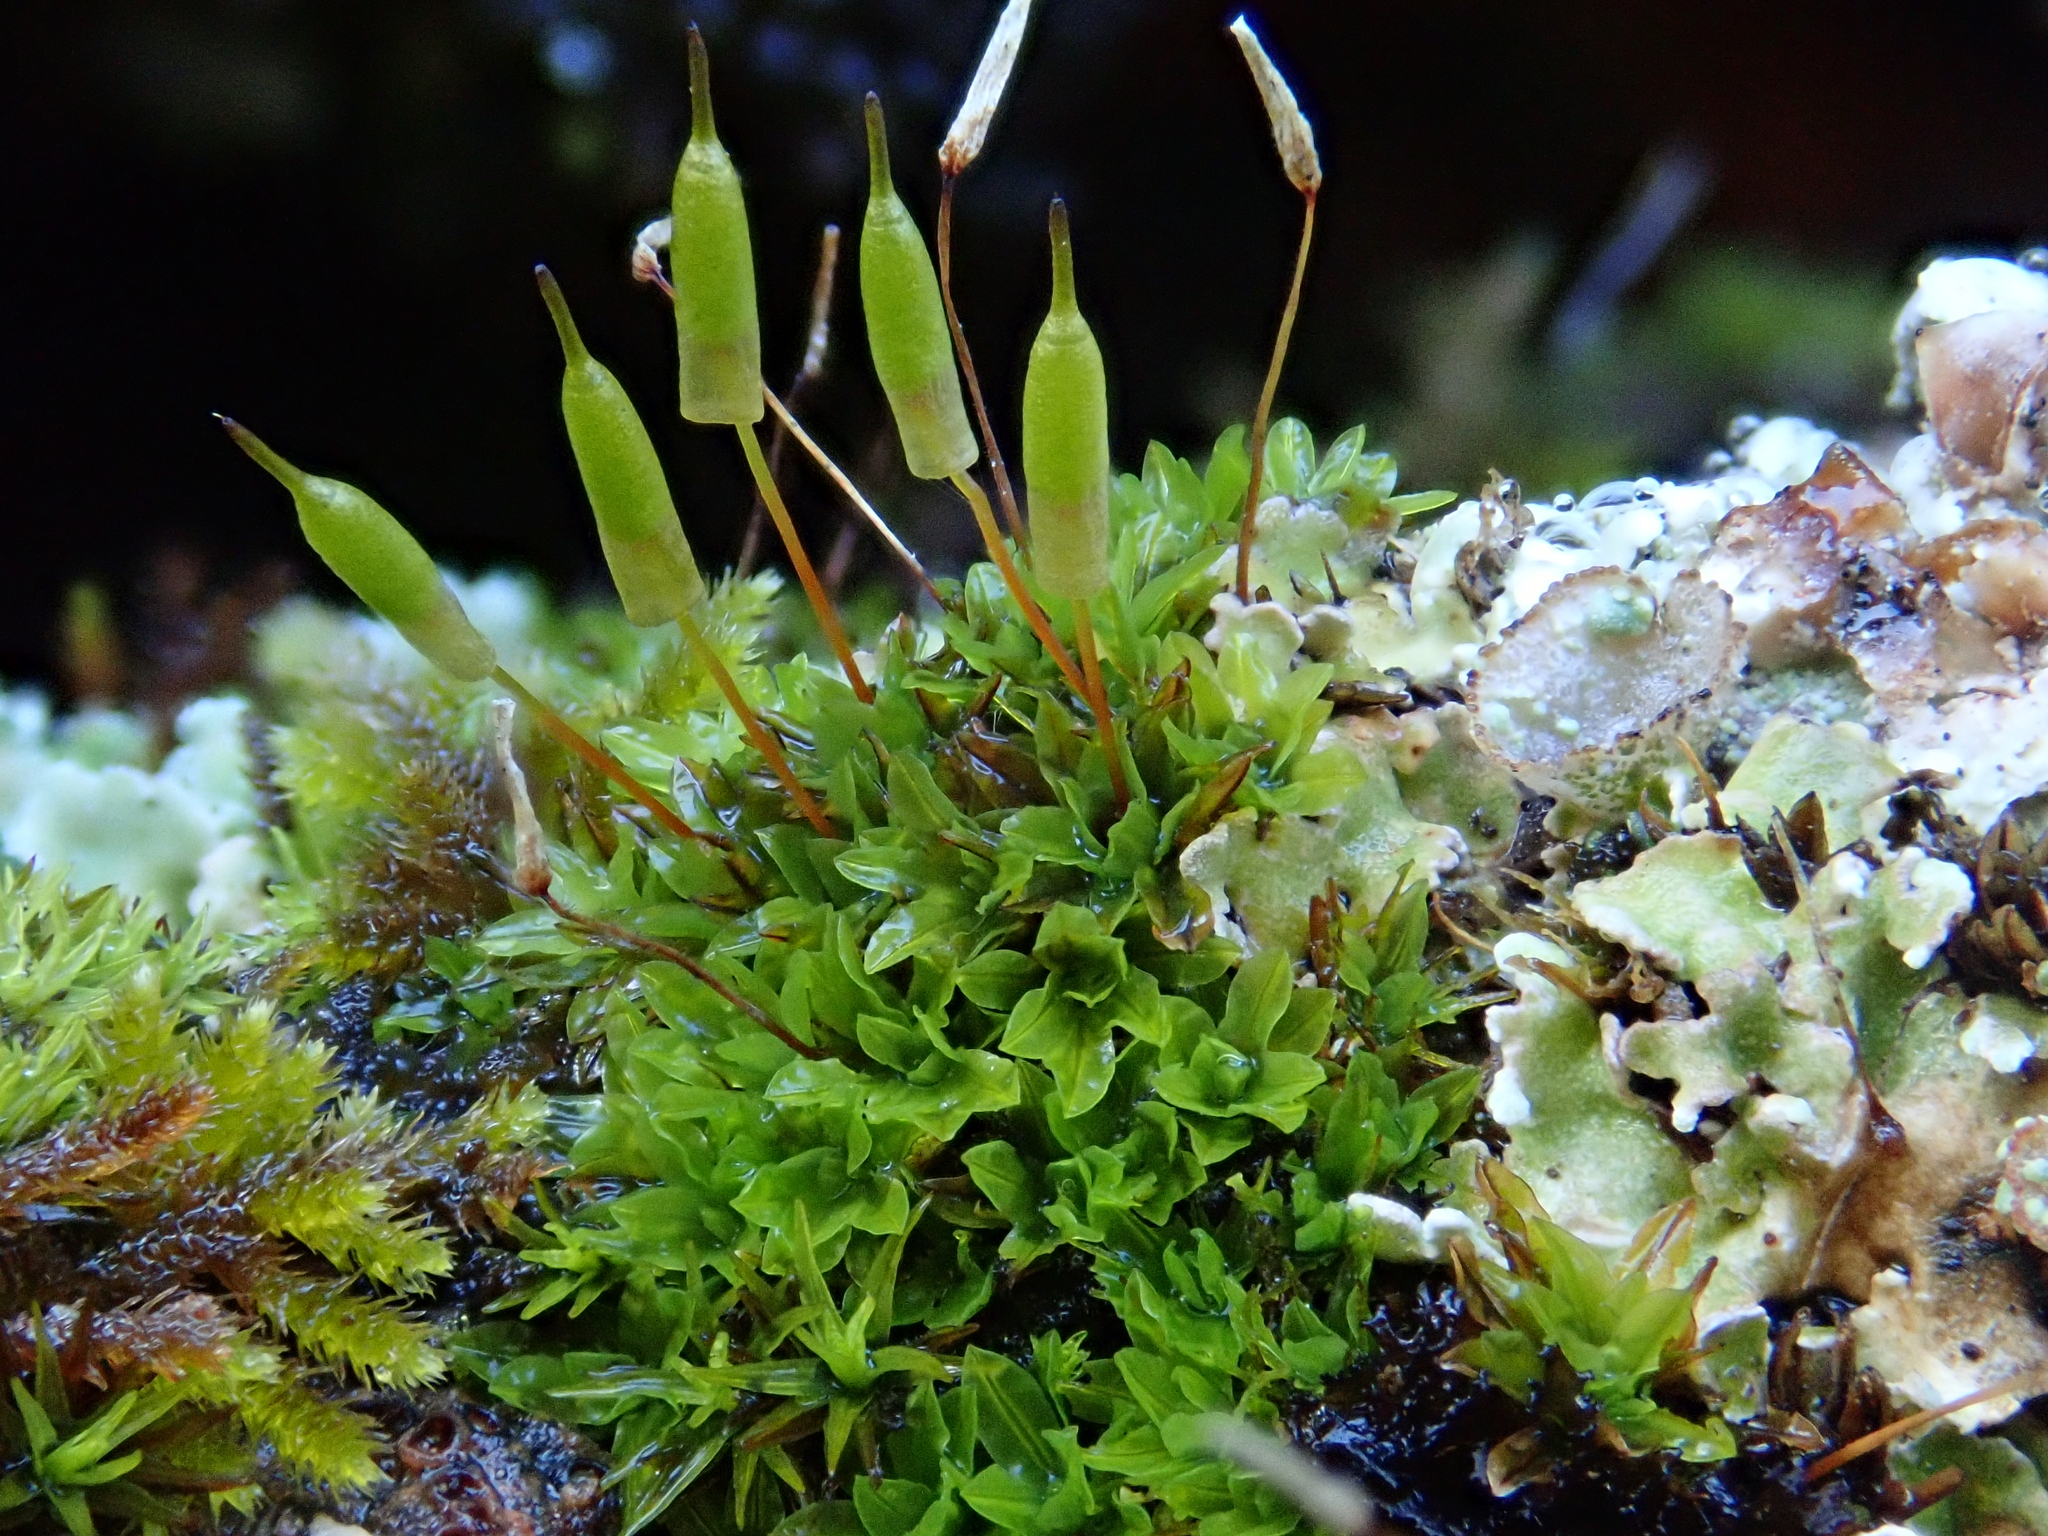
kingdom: Plantae
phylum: Bryophyta
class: Bryopsida
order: Encalyptales
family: Encalyptaceae
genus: Encalypta
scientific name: Encalypta vulgaris
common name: Common extinguisher-moss
